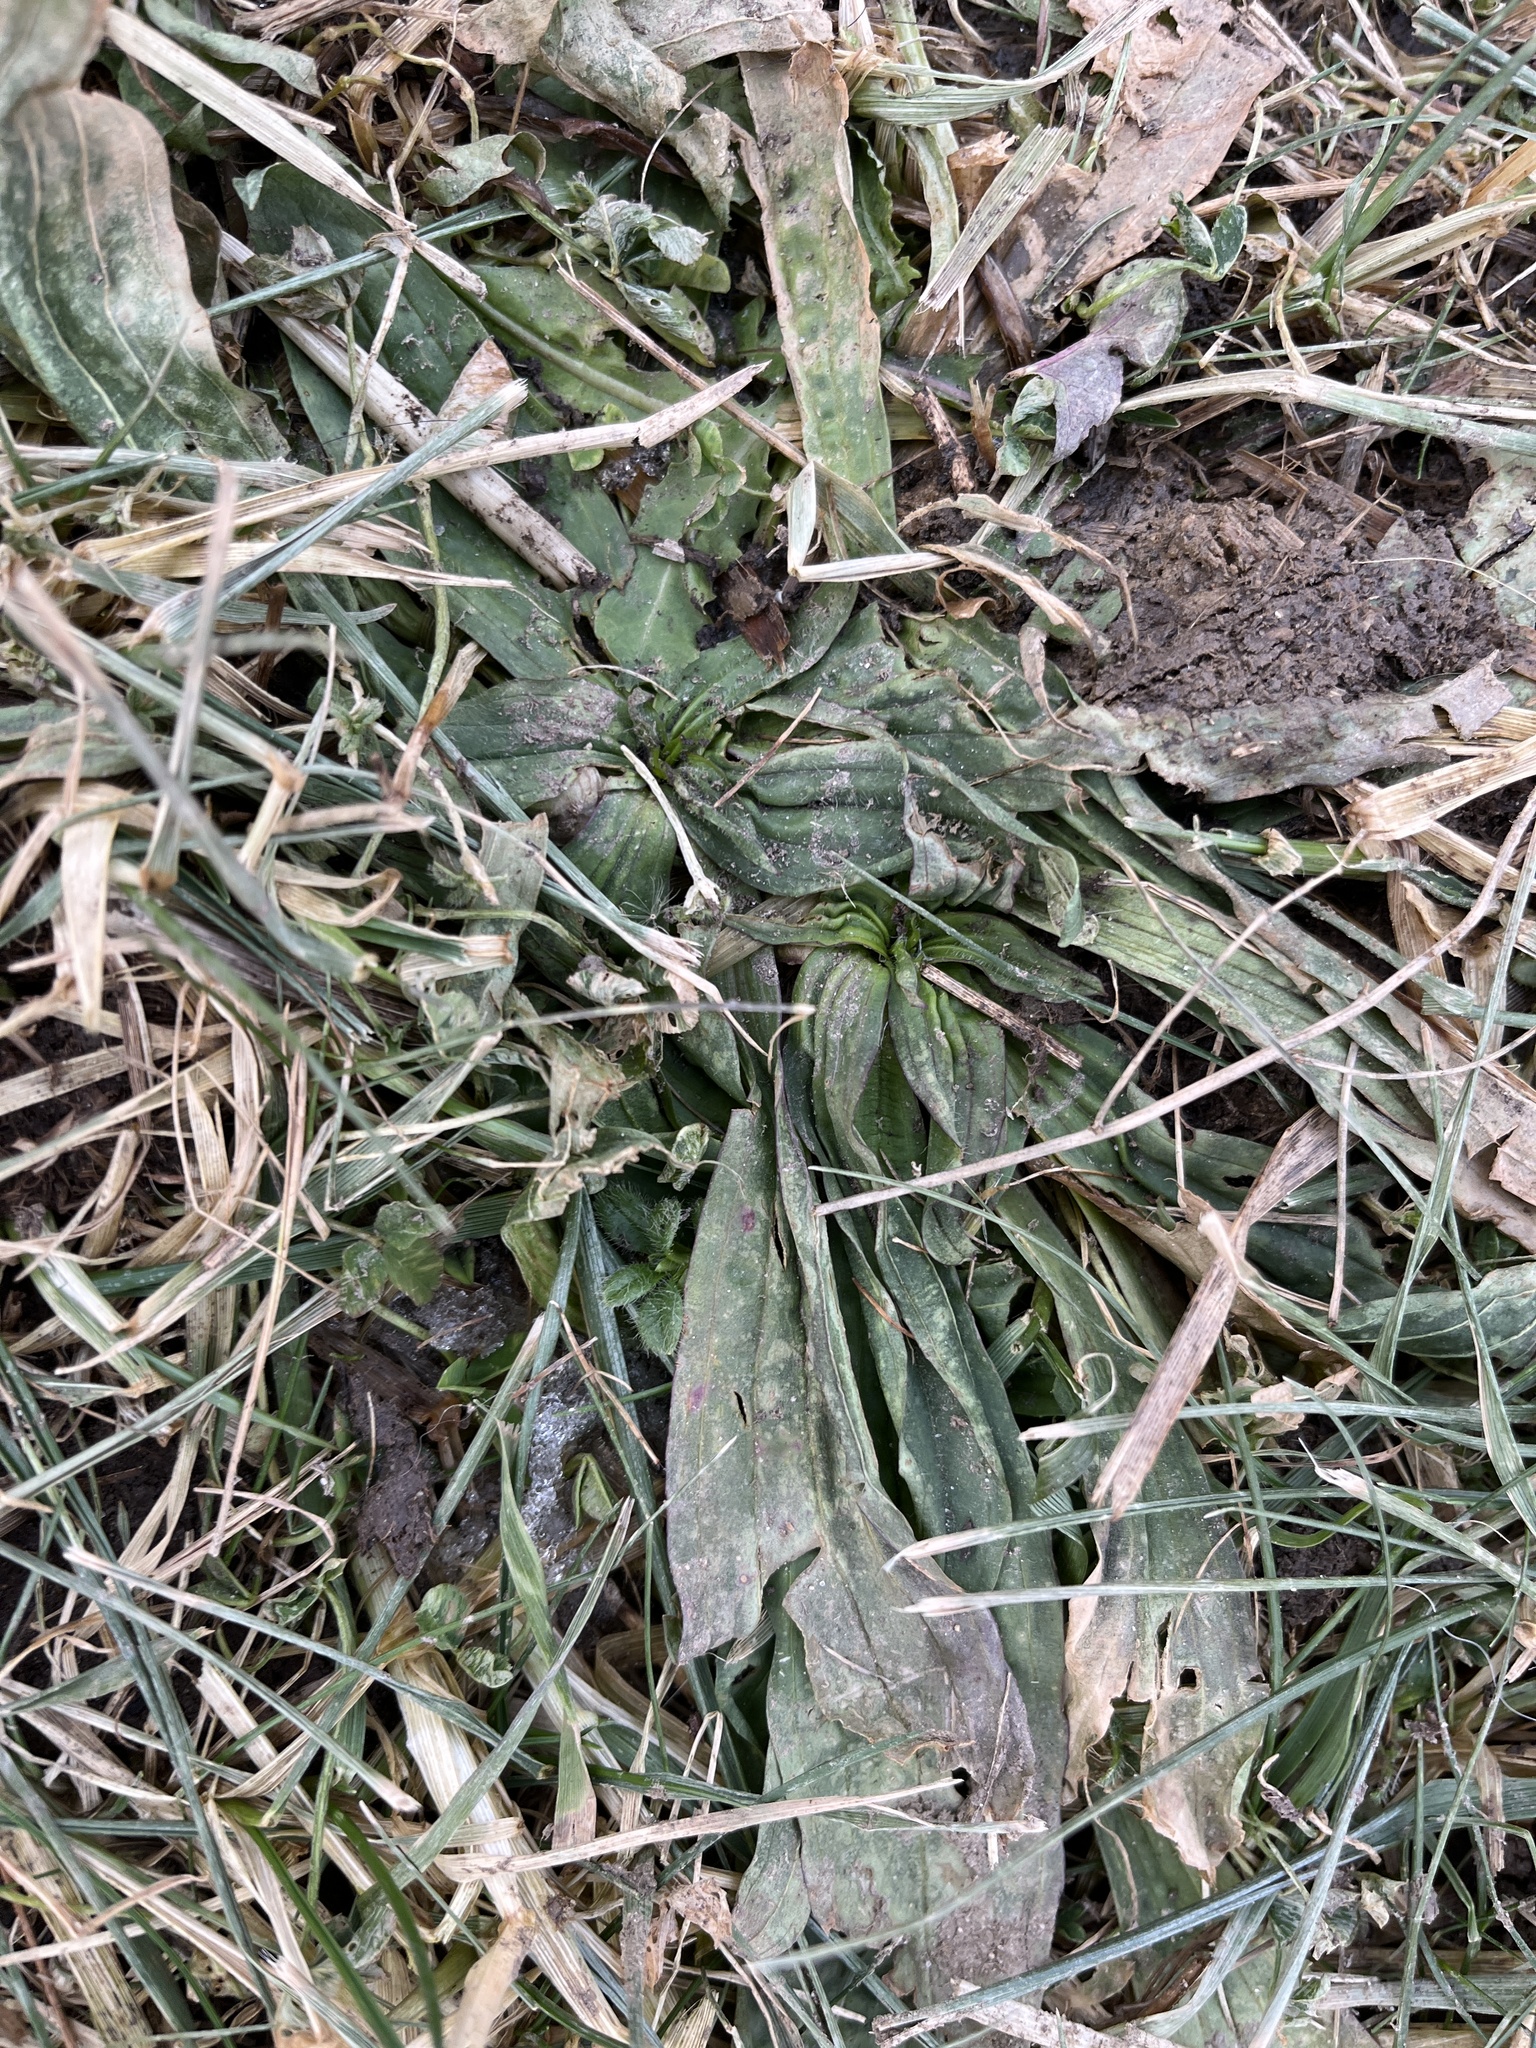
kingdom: Plantae
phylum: Tracheophyta
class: Magnoliopsida
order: Lamiales
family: Plantaginaceae
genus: Plantago
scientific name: Plantago lanceolata
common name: Ribwort plantain
